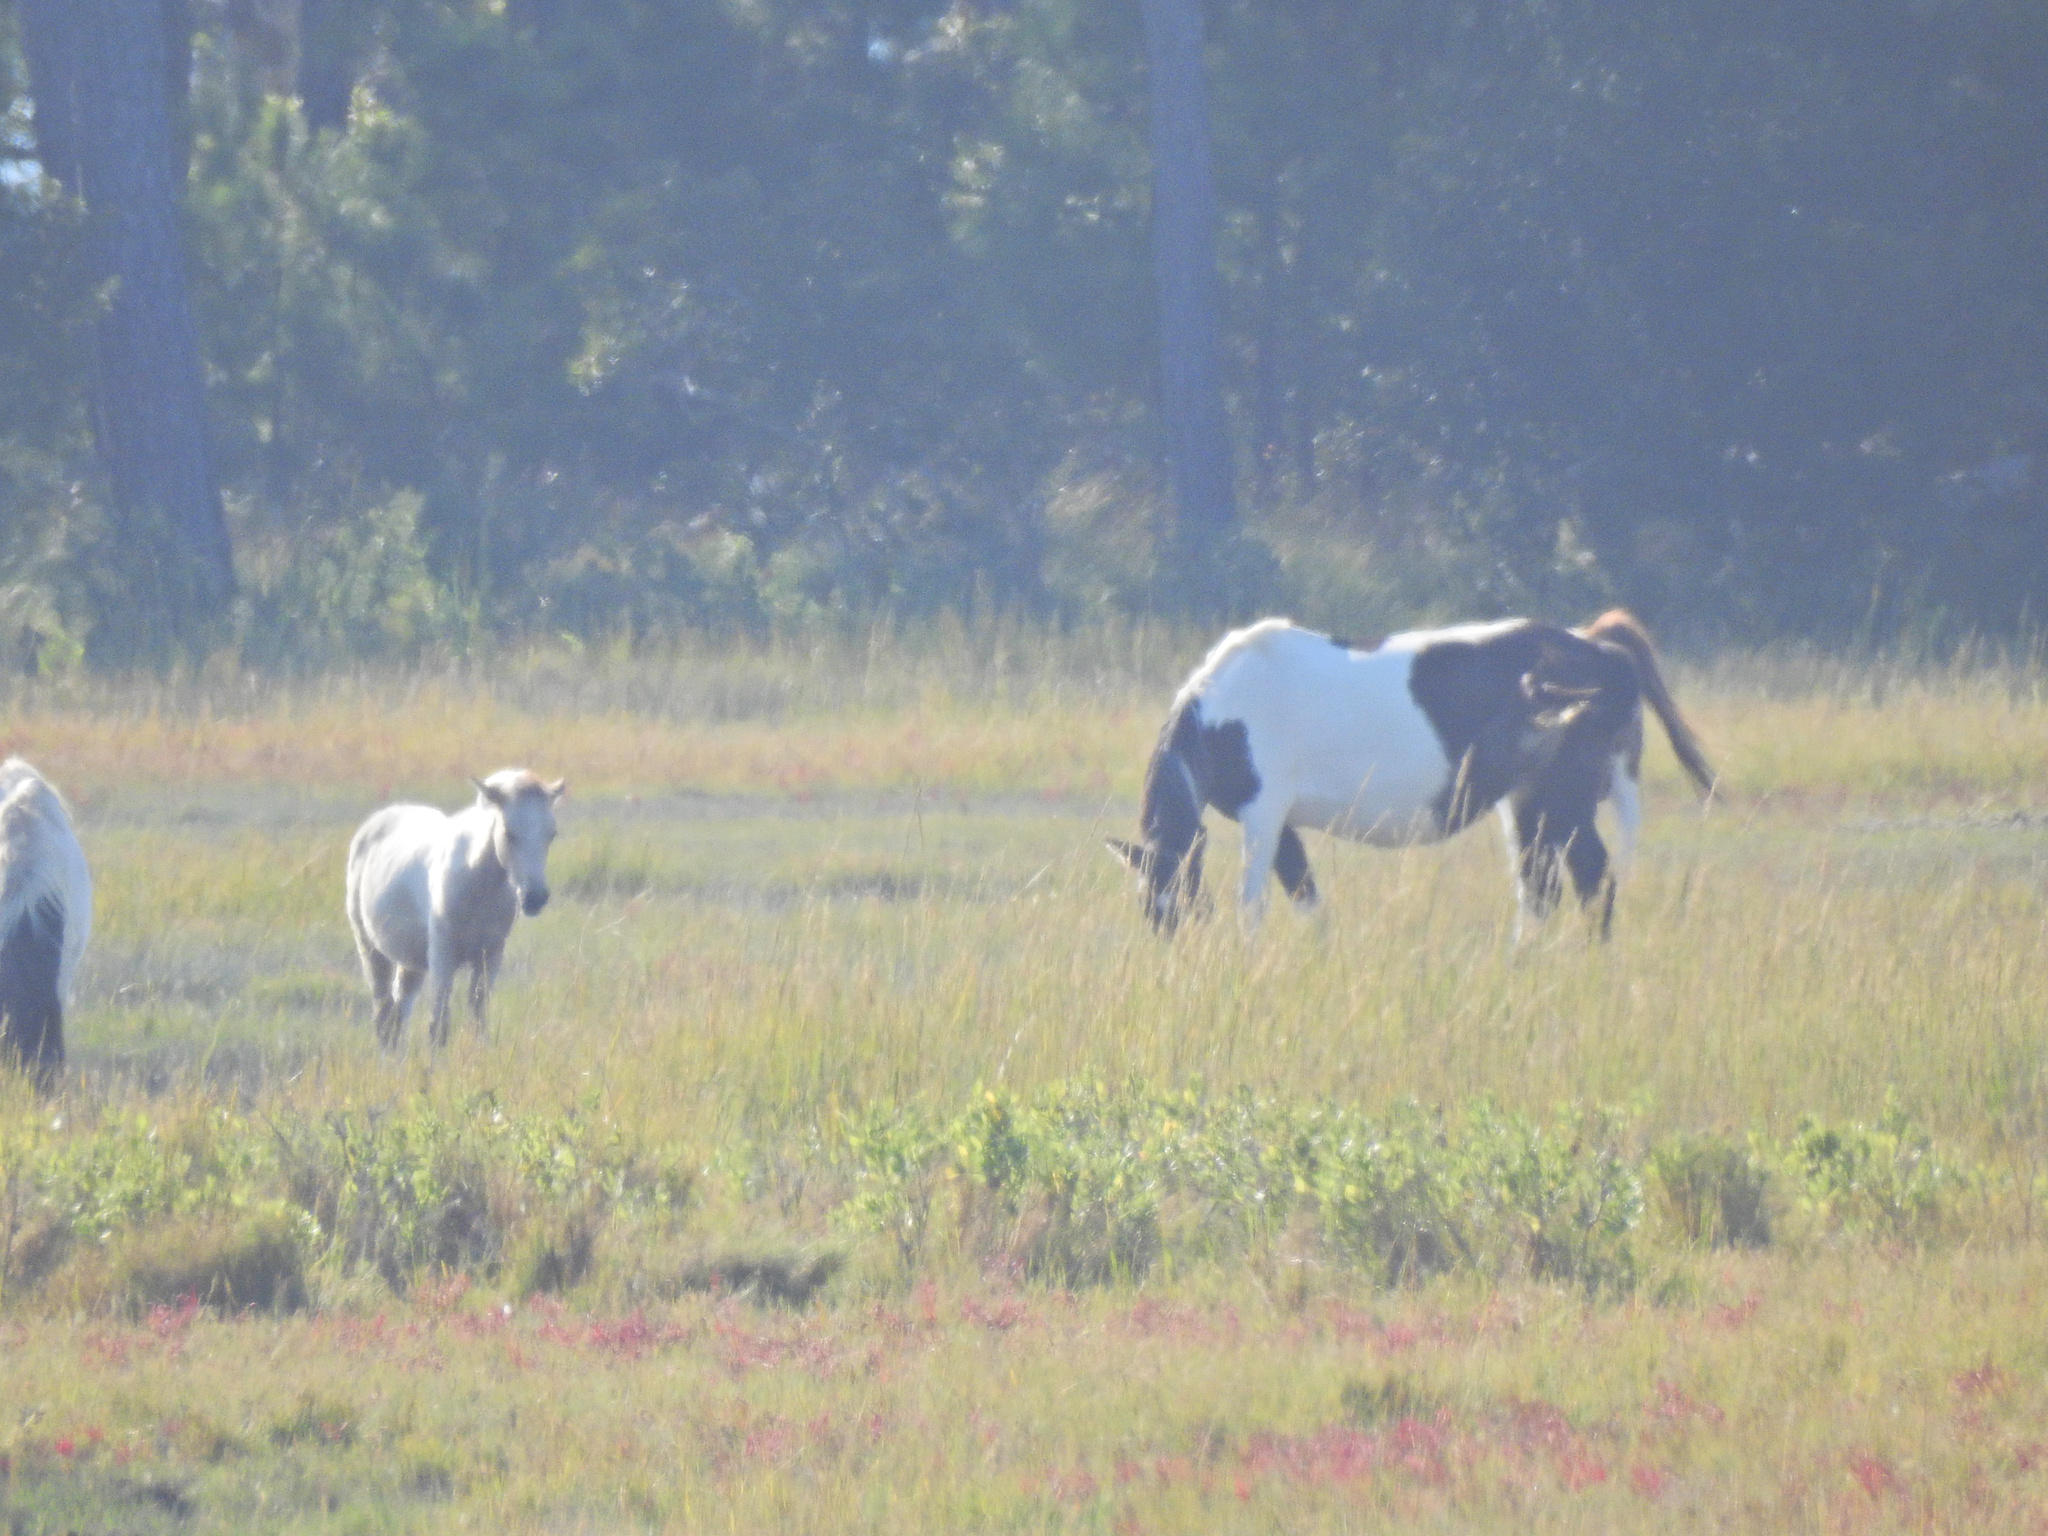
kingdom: Animalia
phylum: Chordata
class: Mammalia
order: Perissodactyla
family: Equidae
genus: Equus
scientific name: Equus caballus
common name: Horse
